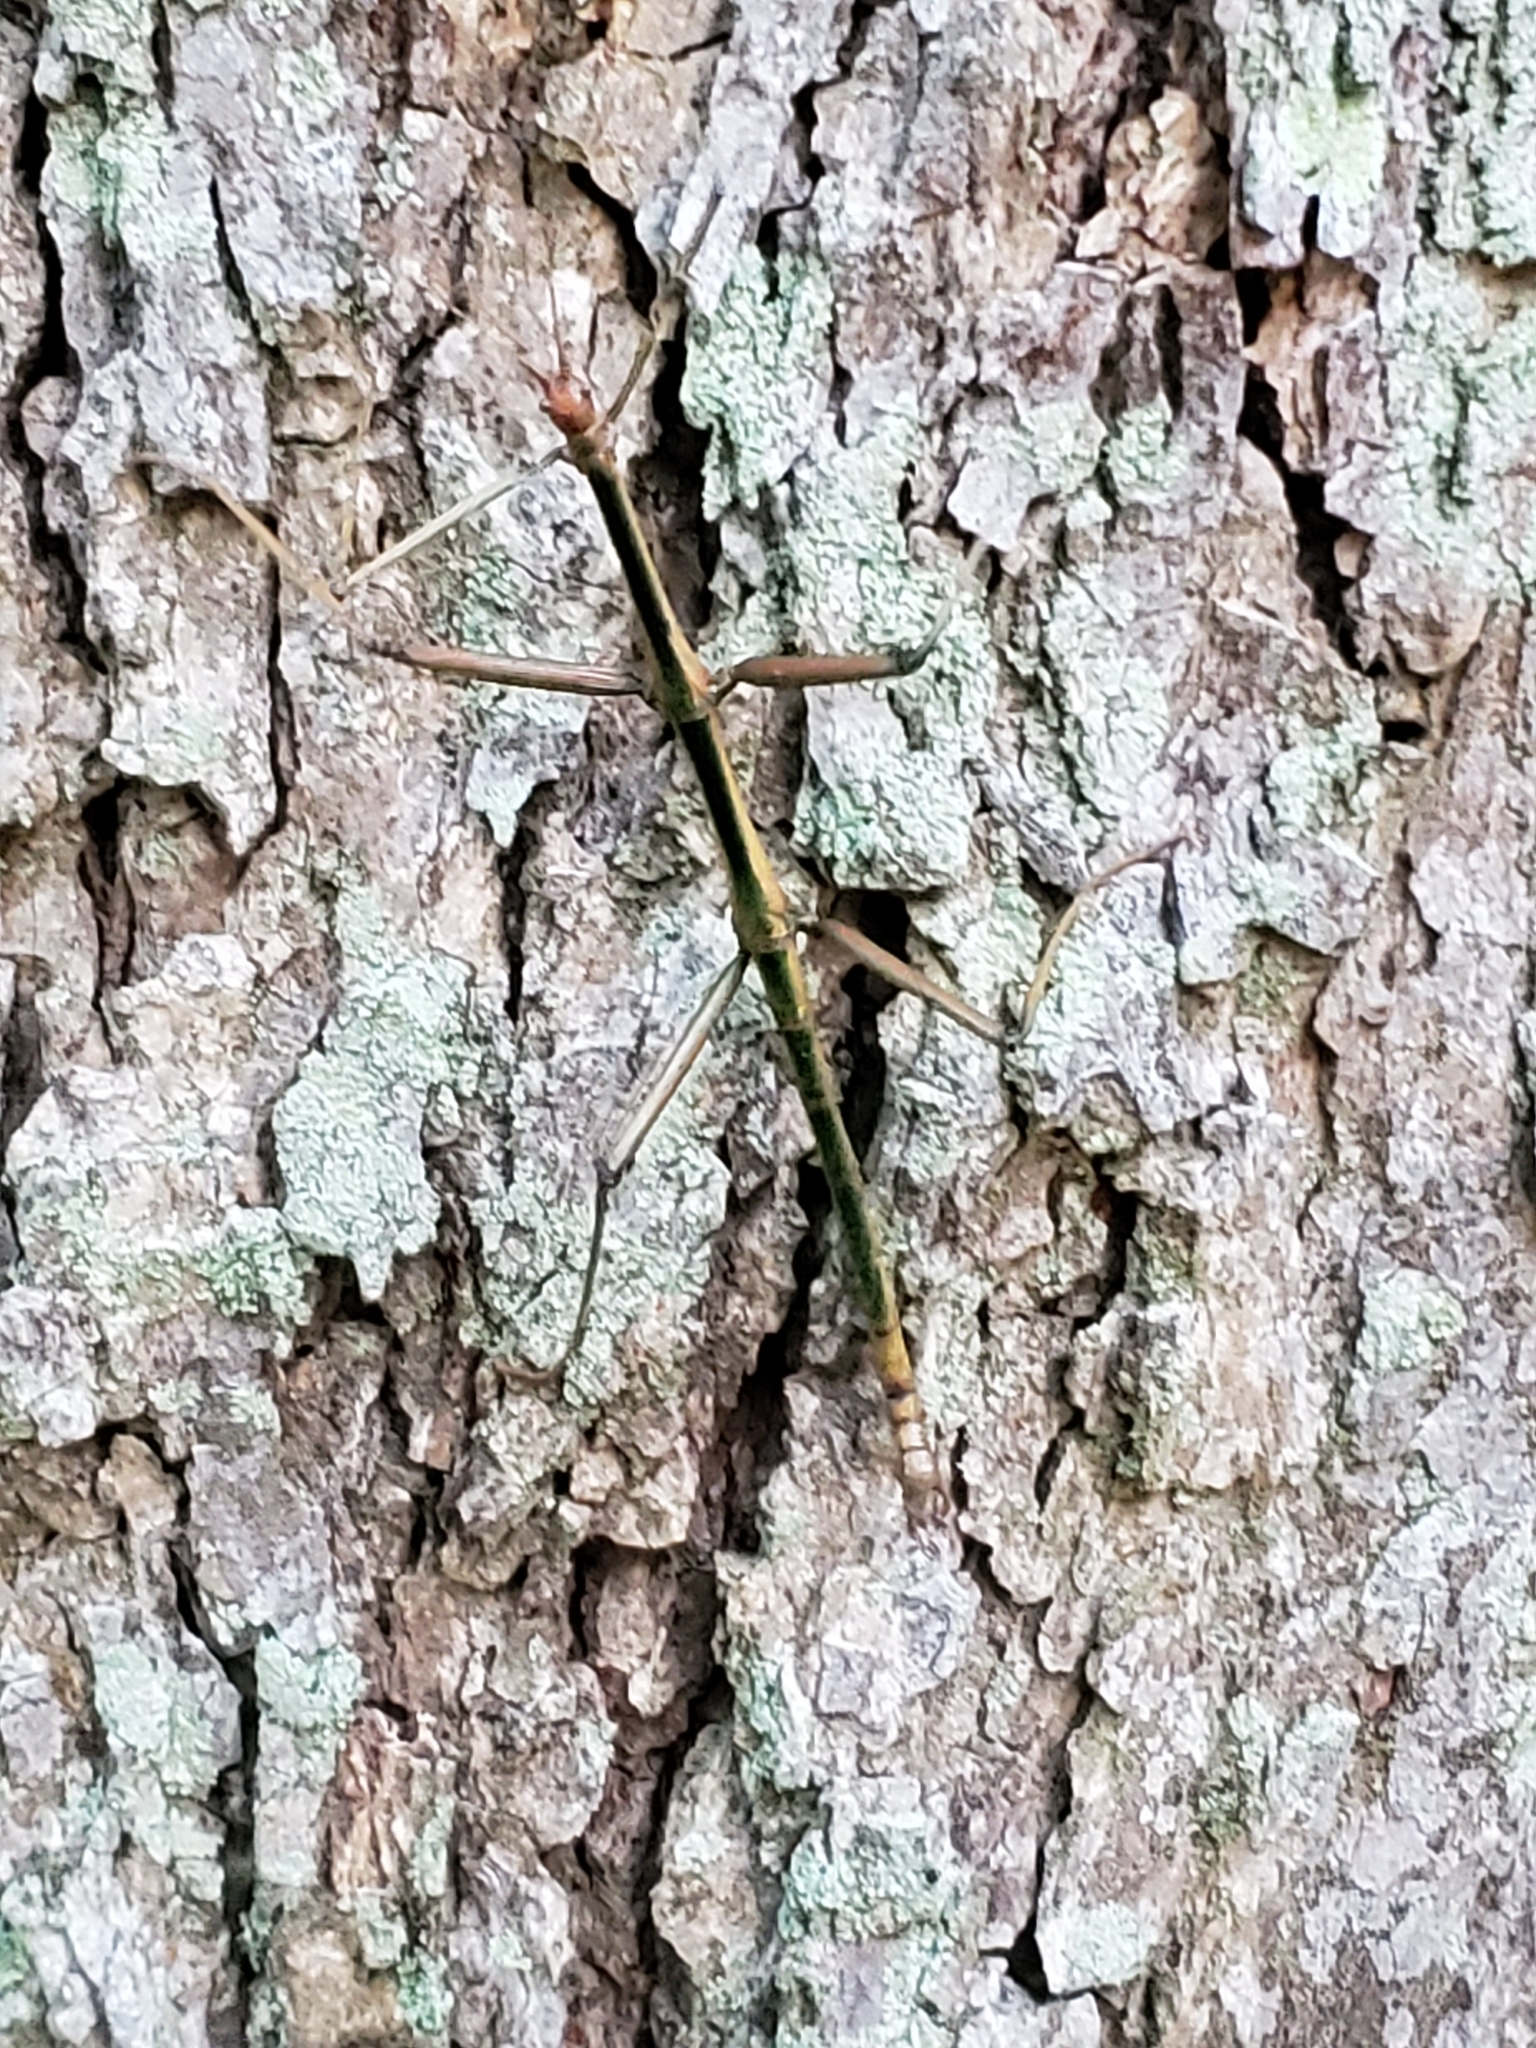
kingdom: Animalia
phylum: Arthropoda
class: Insecta
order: Phasmida
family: Diapheromeridae
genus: Megaphasma
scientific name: Megaphasma denticrus
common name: Giant walkingstick
